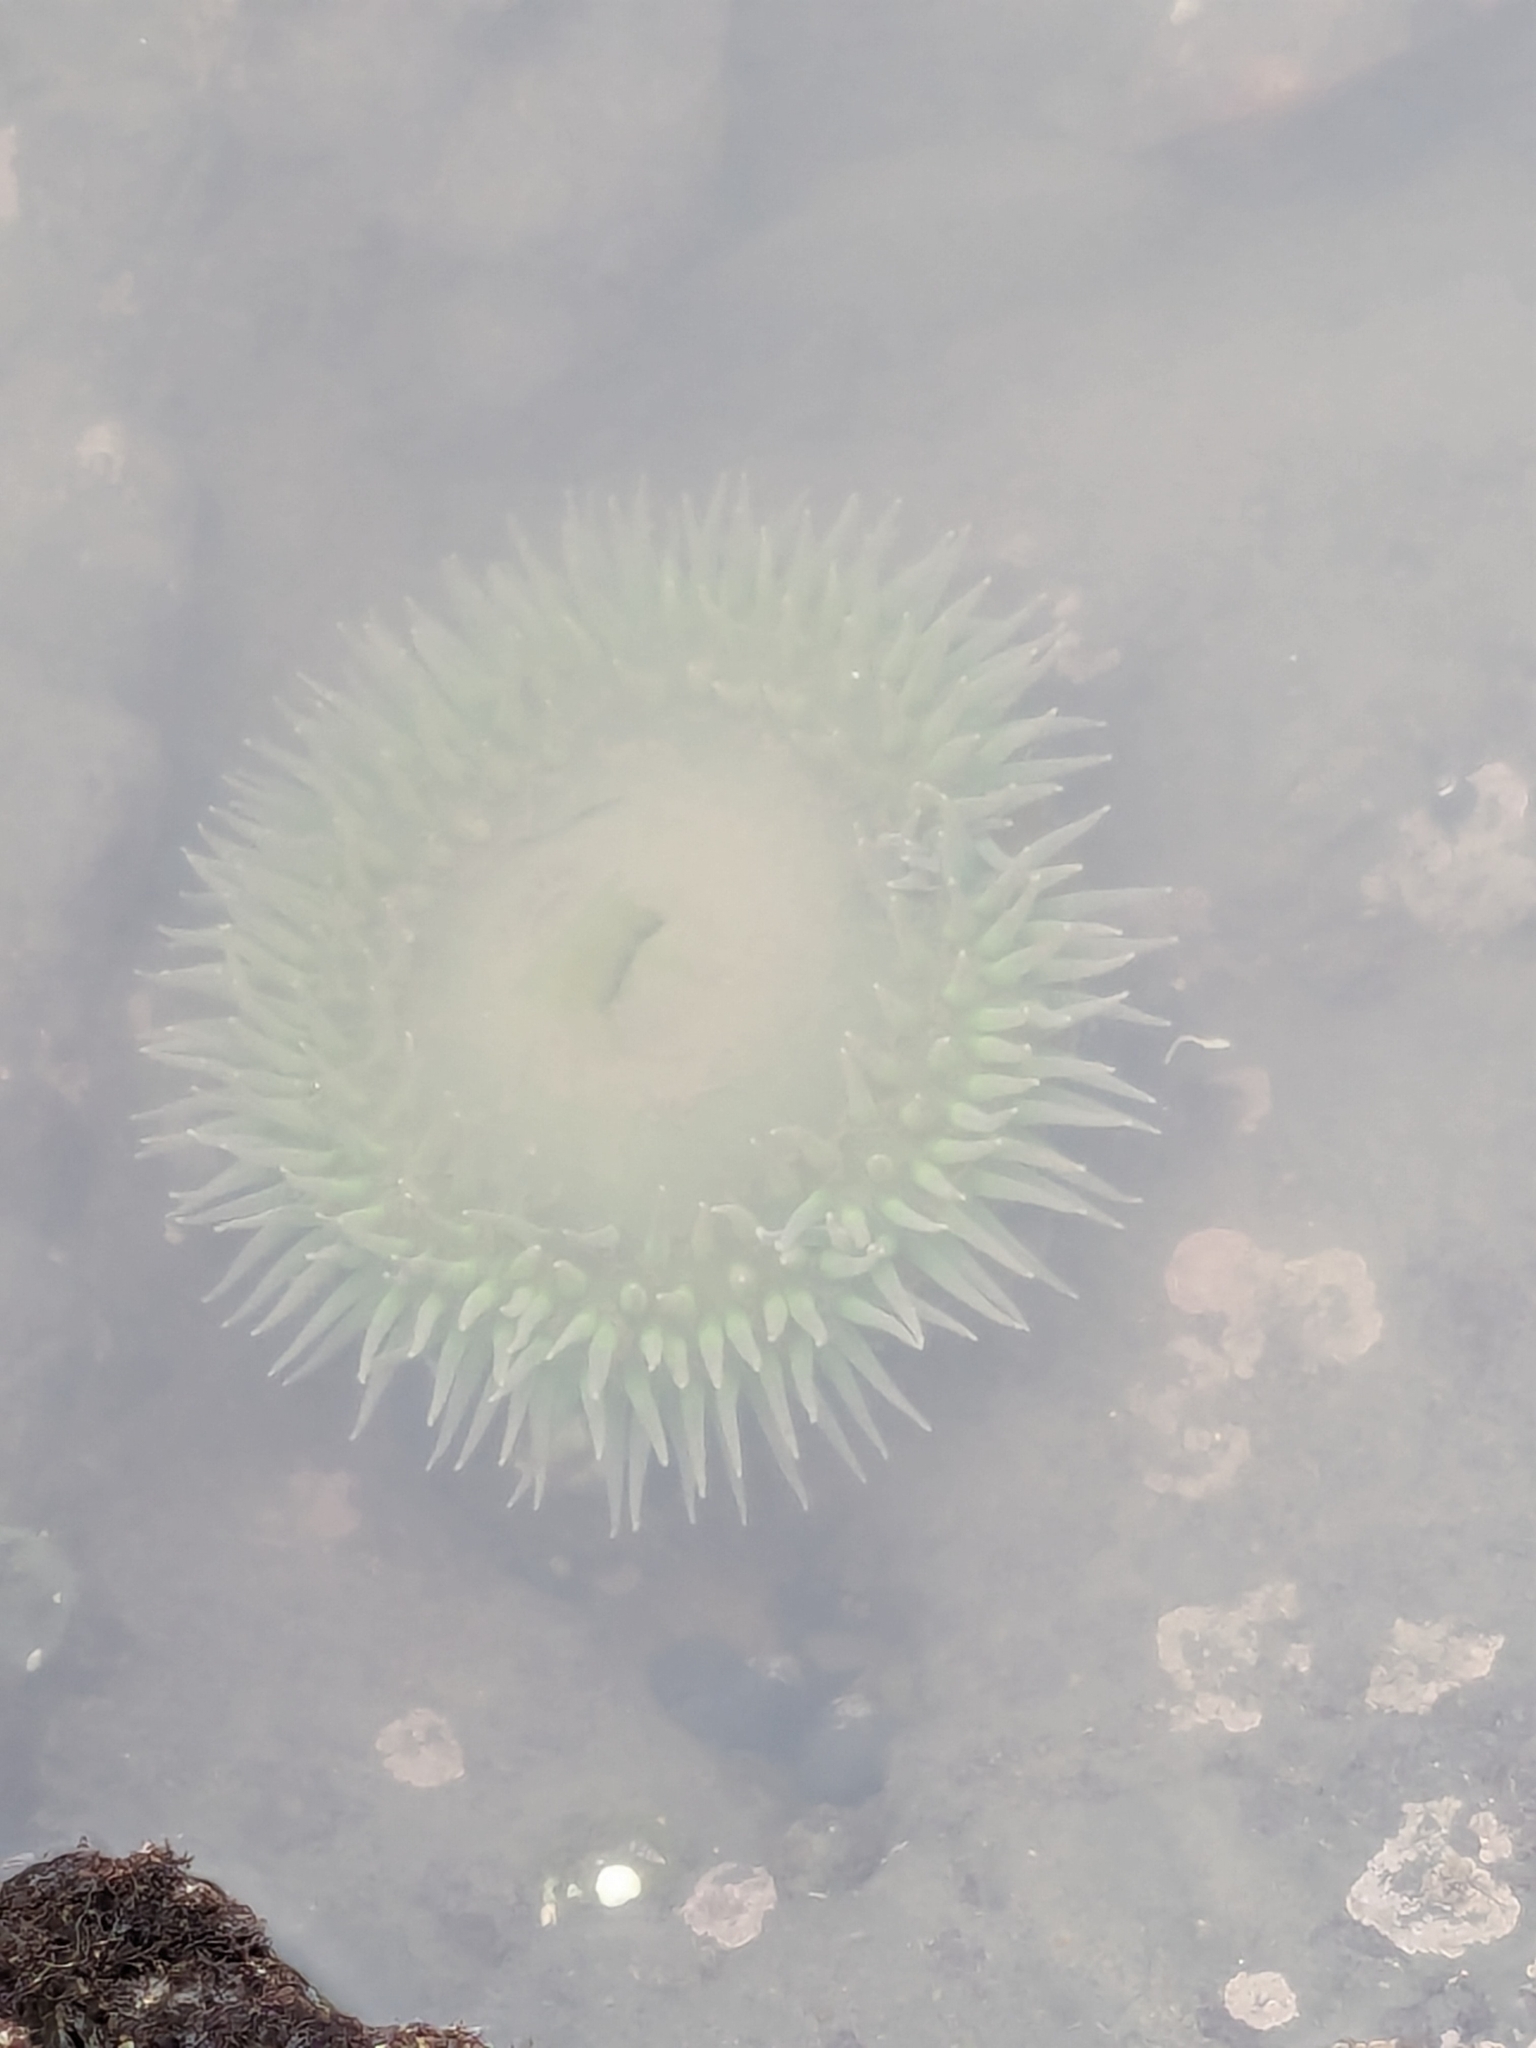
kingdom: Animalia
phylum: Cnidaria
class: Anthozoa
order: Actiniaria
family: Actiniidae
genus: Anthopleura
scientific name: Anthopleura xanthogrammica
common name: Giant green anemone
